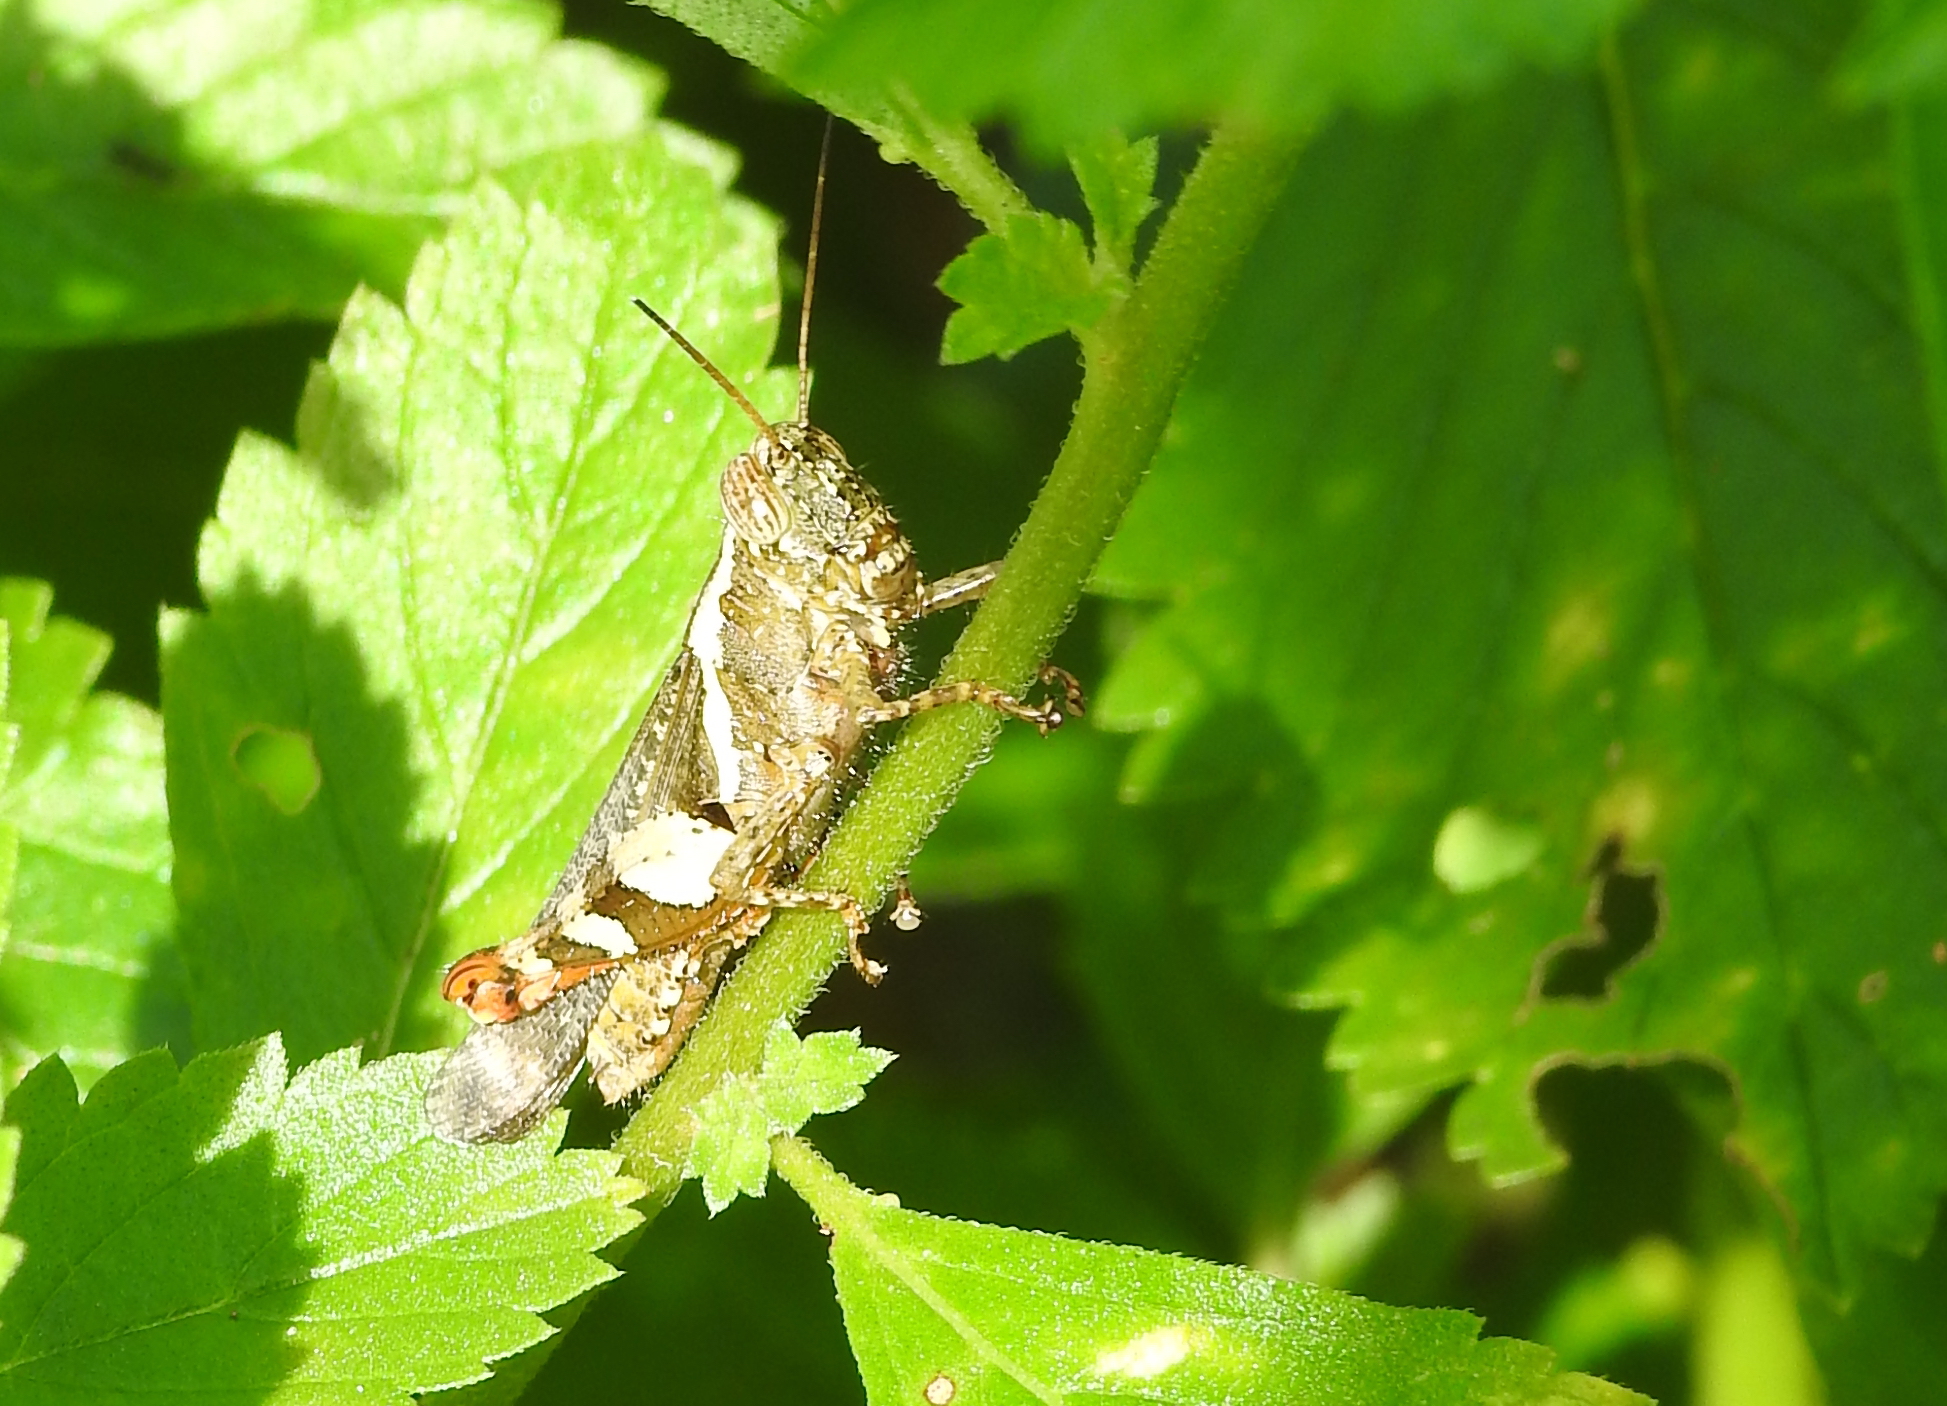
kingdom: Animalia
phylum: Arthropoda
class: Insecta
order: Orthoptera
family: Acrididae
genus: Xenocatantops
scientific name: Xenocatantops humile
